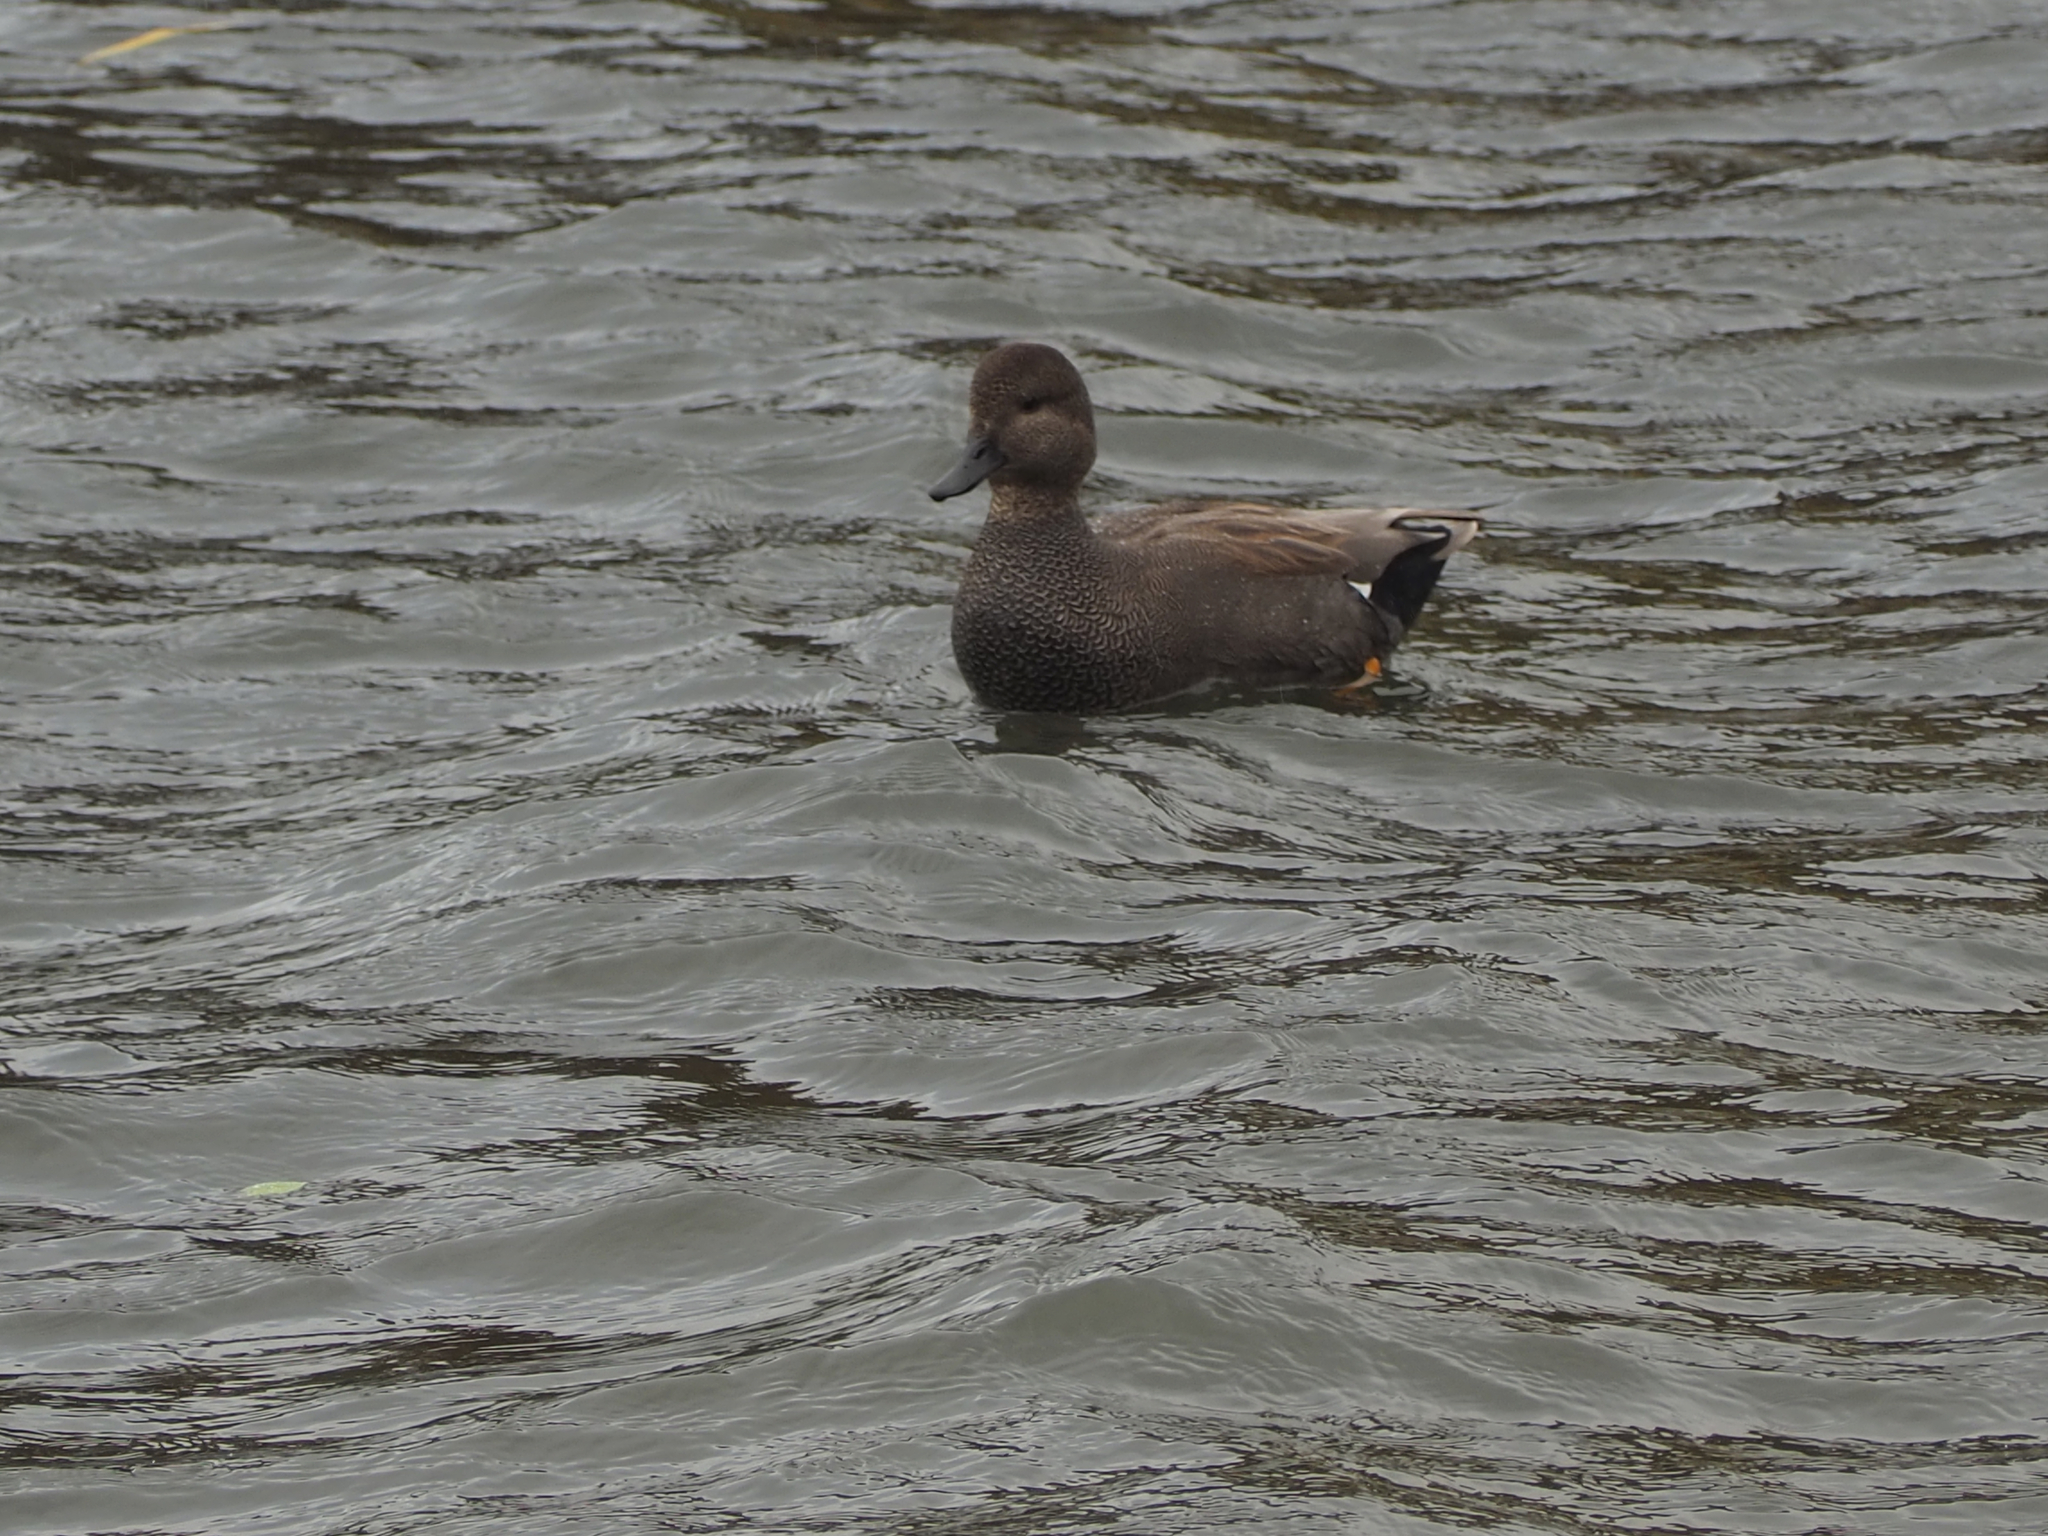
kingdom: Animalia
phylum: Chordata
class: Aves
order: Anseriformes
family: Anatidae
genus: Mareca
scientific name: Mareca strepera
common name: Gadwall
